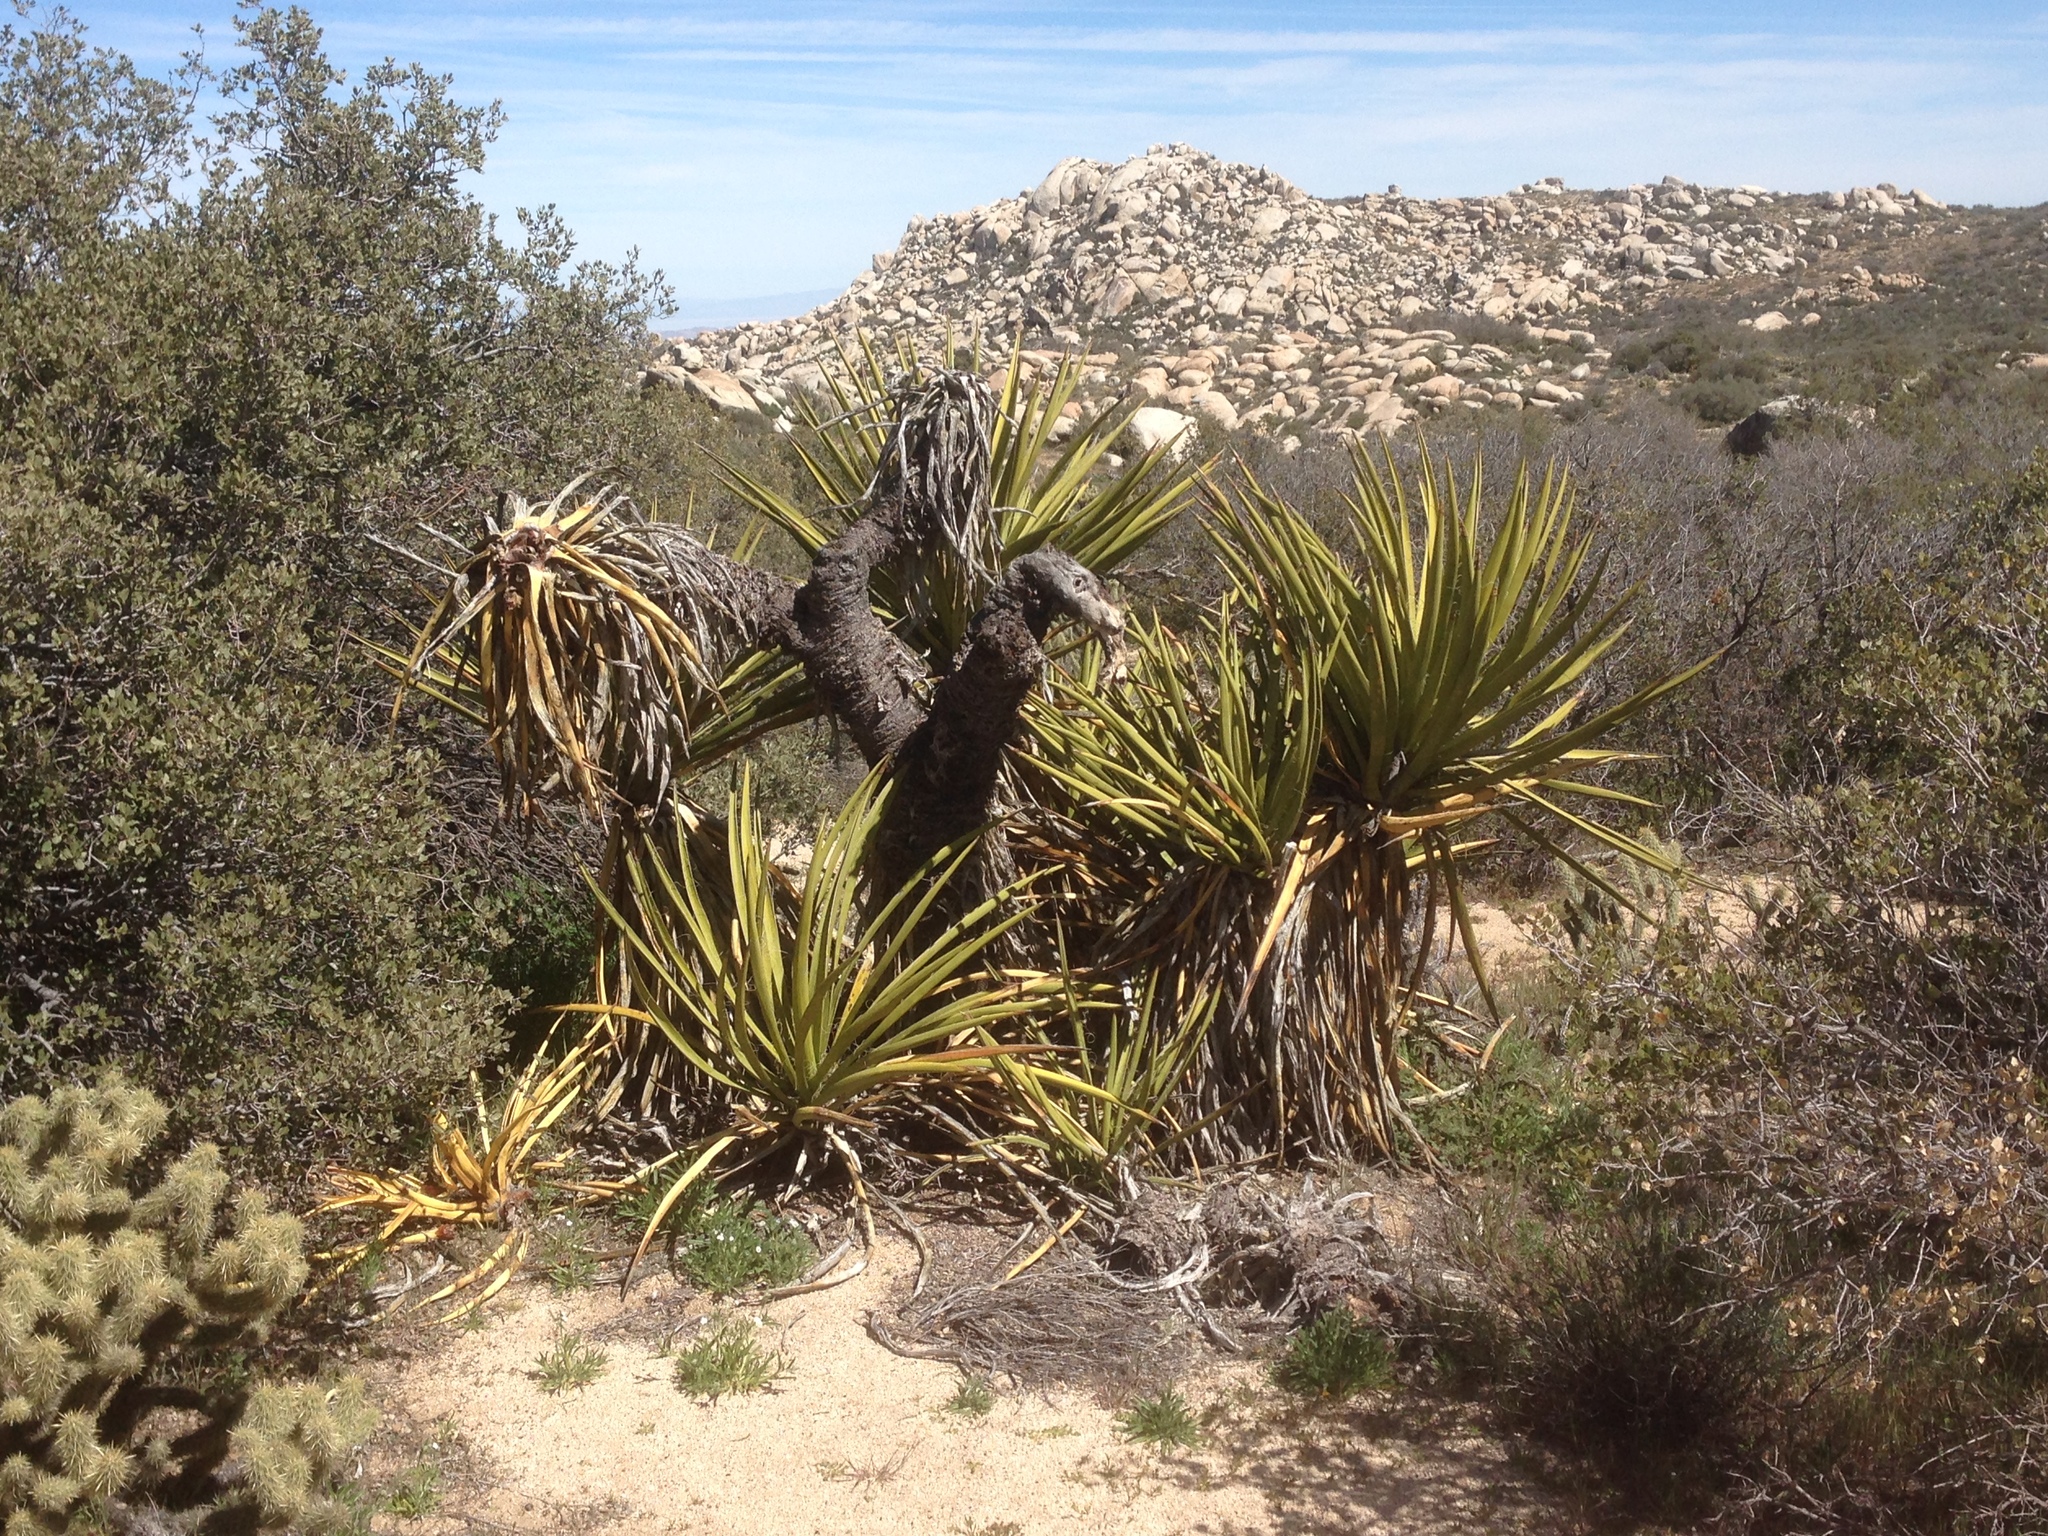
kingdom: Plantae
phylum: Tracheophyta
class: Liliopsida
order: Asparagales
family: Asparagaceae
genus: Yucca
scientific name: Yucca schidigera
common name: Mojave yucca
